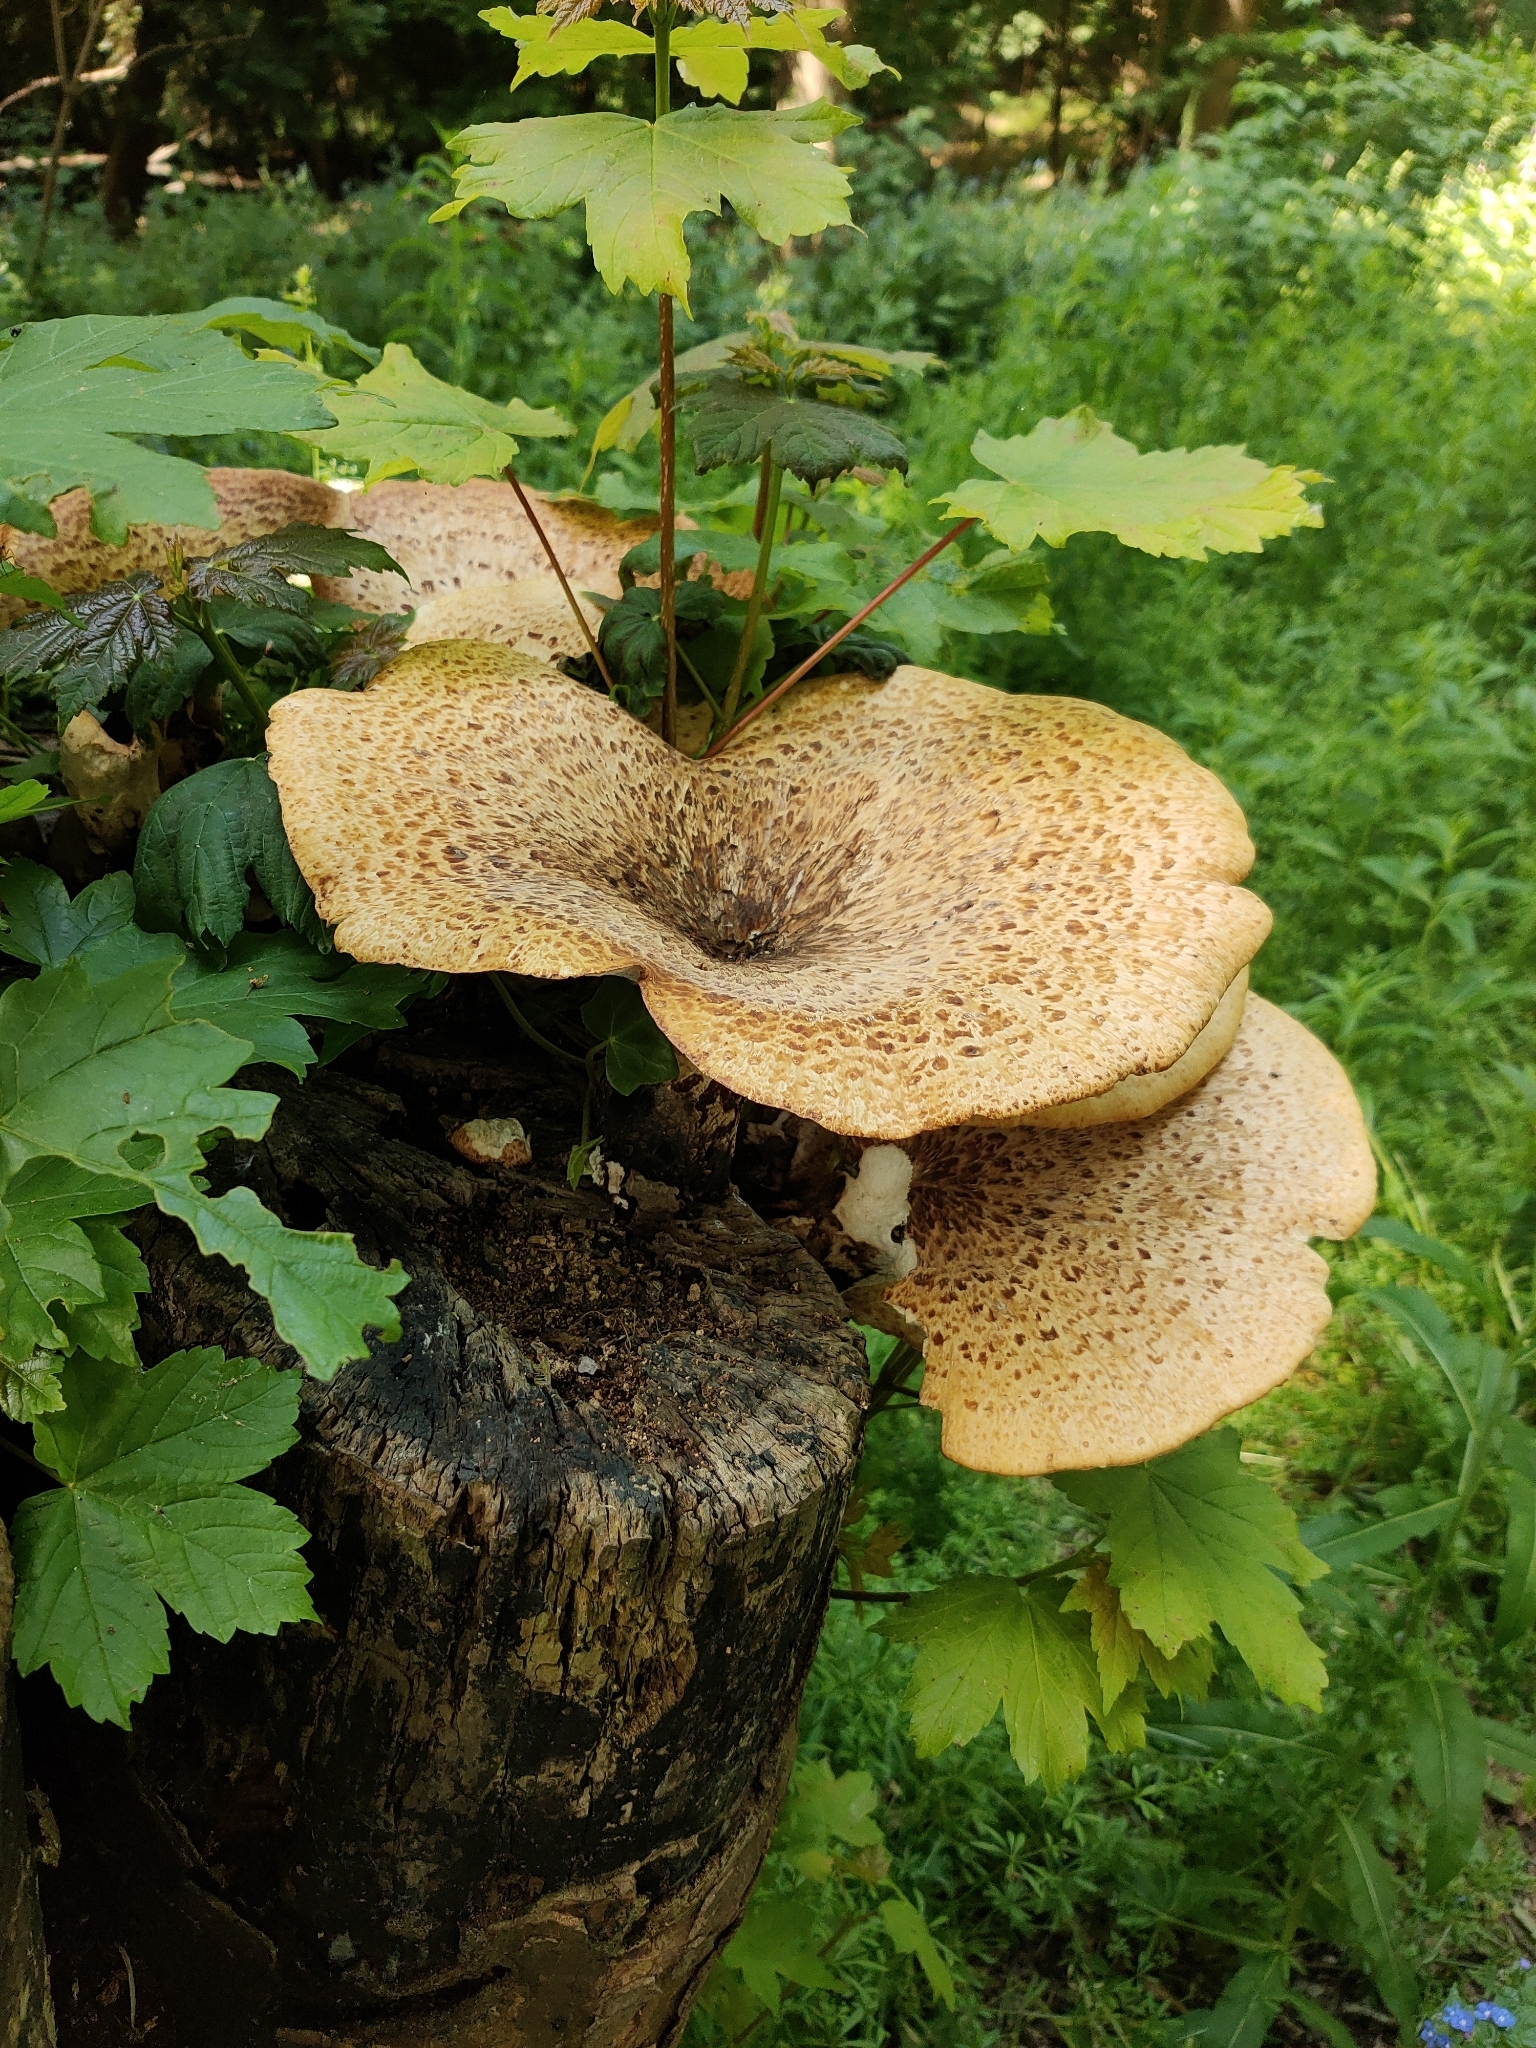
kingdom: Fungi
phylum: Basidiomycota
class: Agaricomycetes
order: Polyporales
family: Polyporaceae
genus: Cerioporus
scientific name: Cerioporus squamosus
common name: Dryad's saddle
